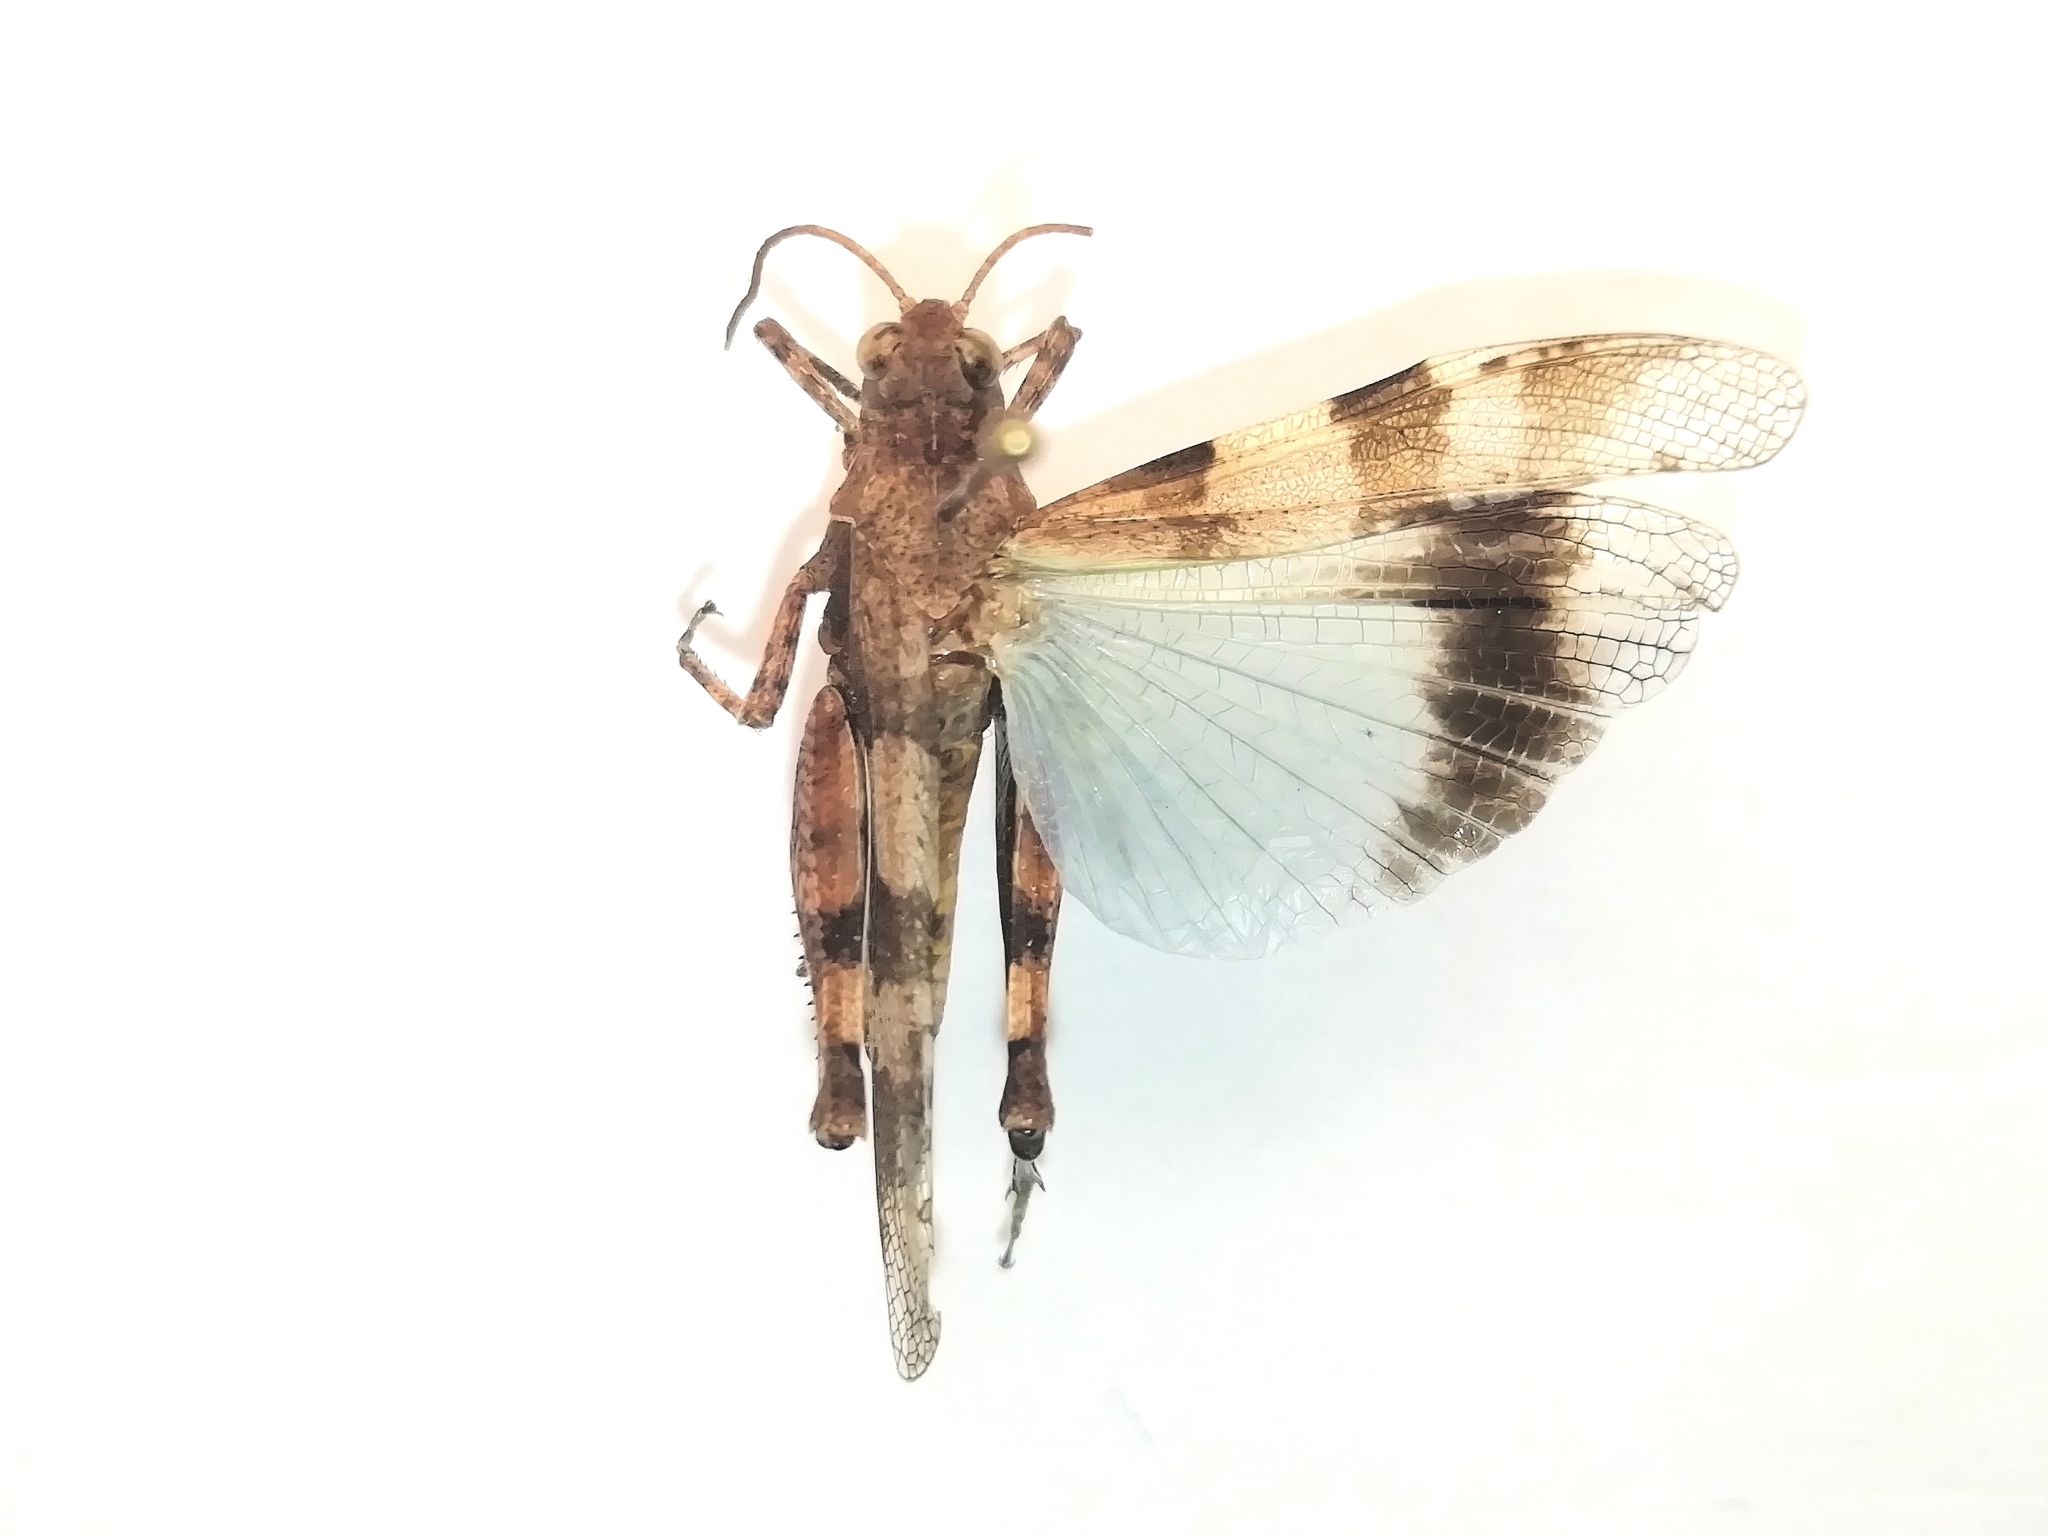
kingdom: Animalia
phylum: Arthropoda
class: Insecta
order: Orthoptera
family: Acrididae
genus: Oedipoda
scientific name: Oedipoda caerulescens
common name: Blue-winged grasshopper
